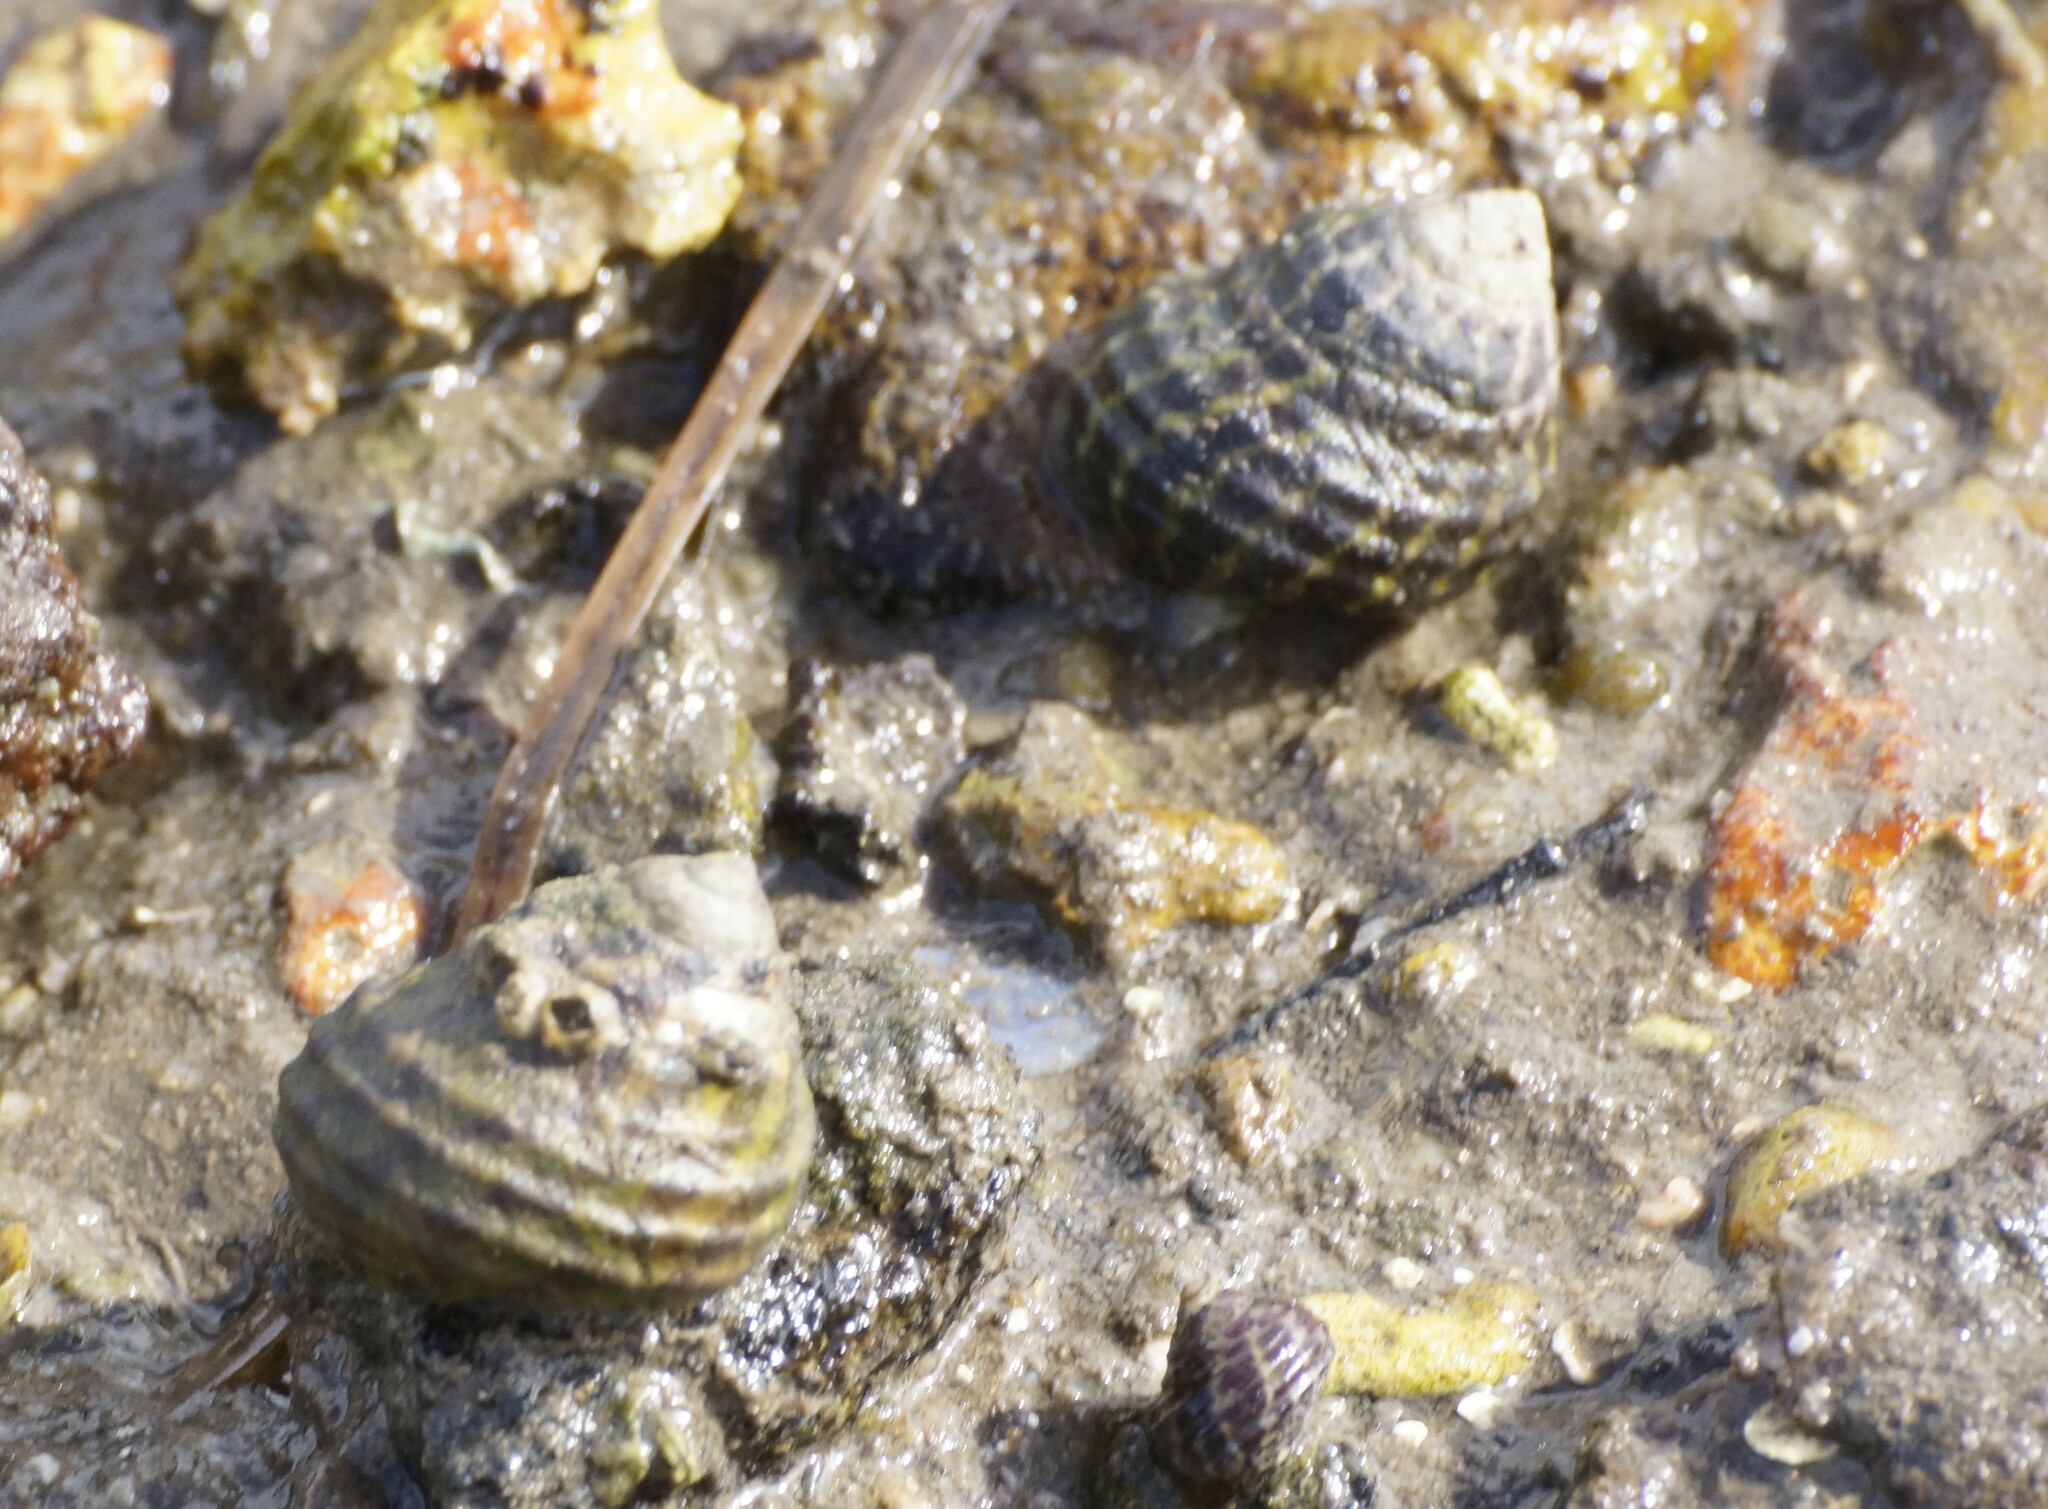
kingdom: Animalia
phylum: Mollusca
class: Gastropoda
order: Trochida
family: Trochidae
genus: Austrocochlea
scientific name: Austrocochlea porcata
